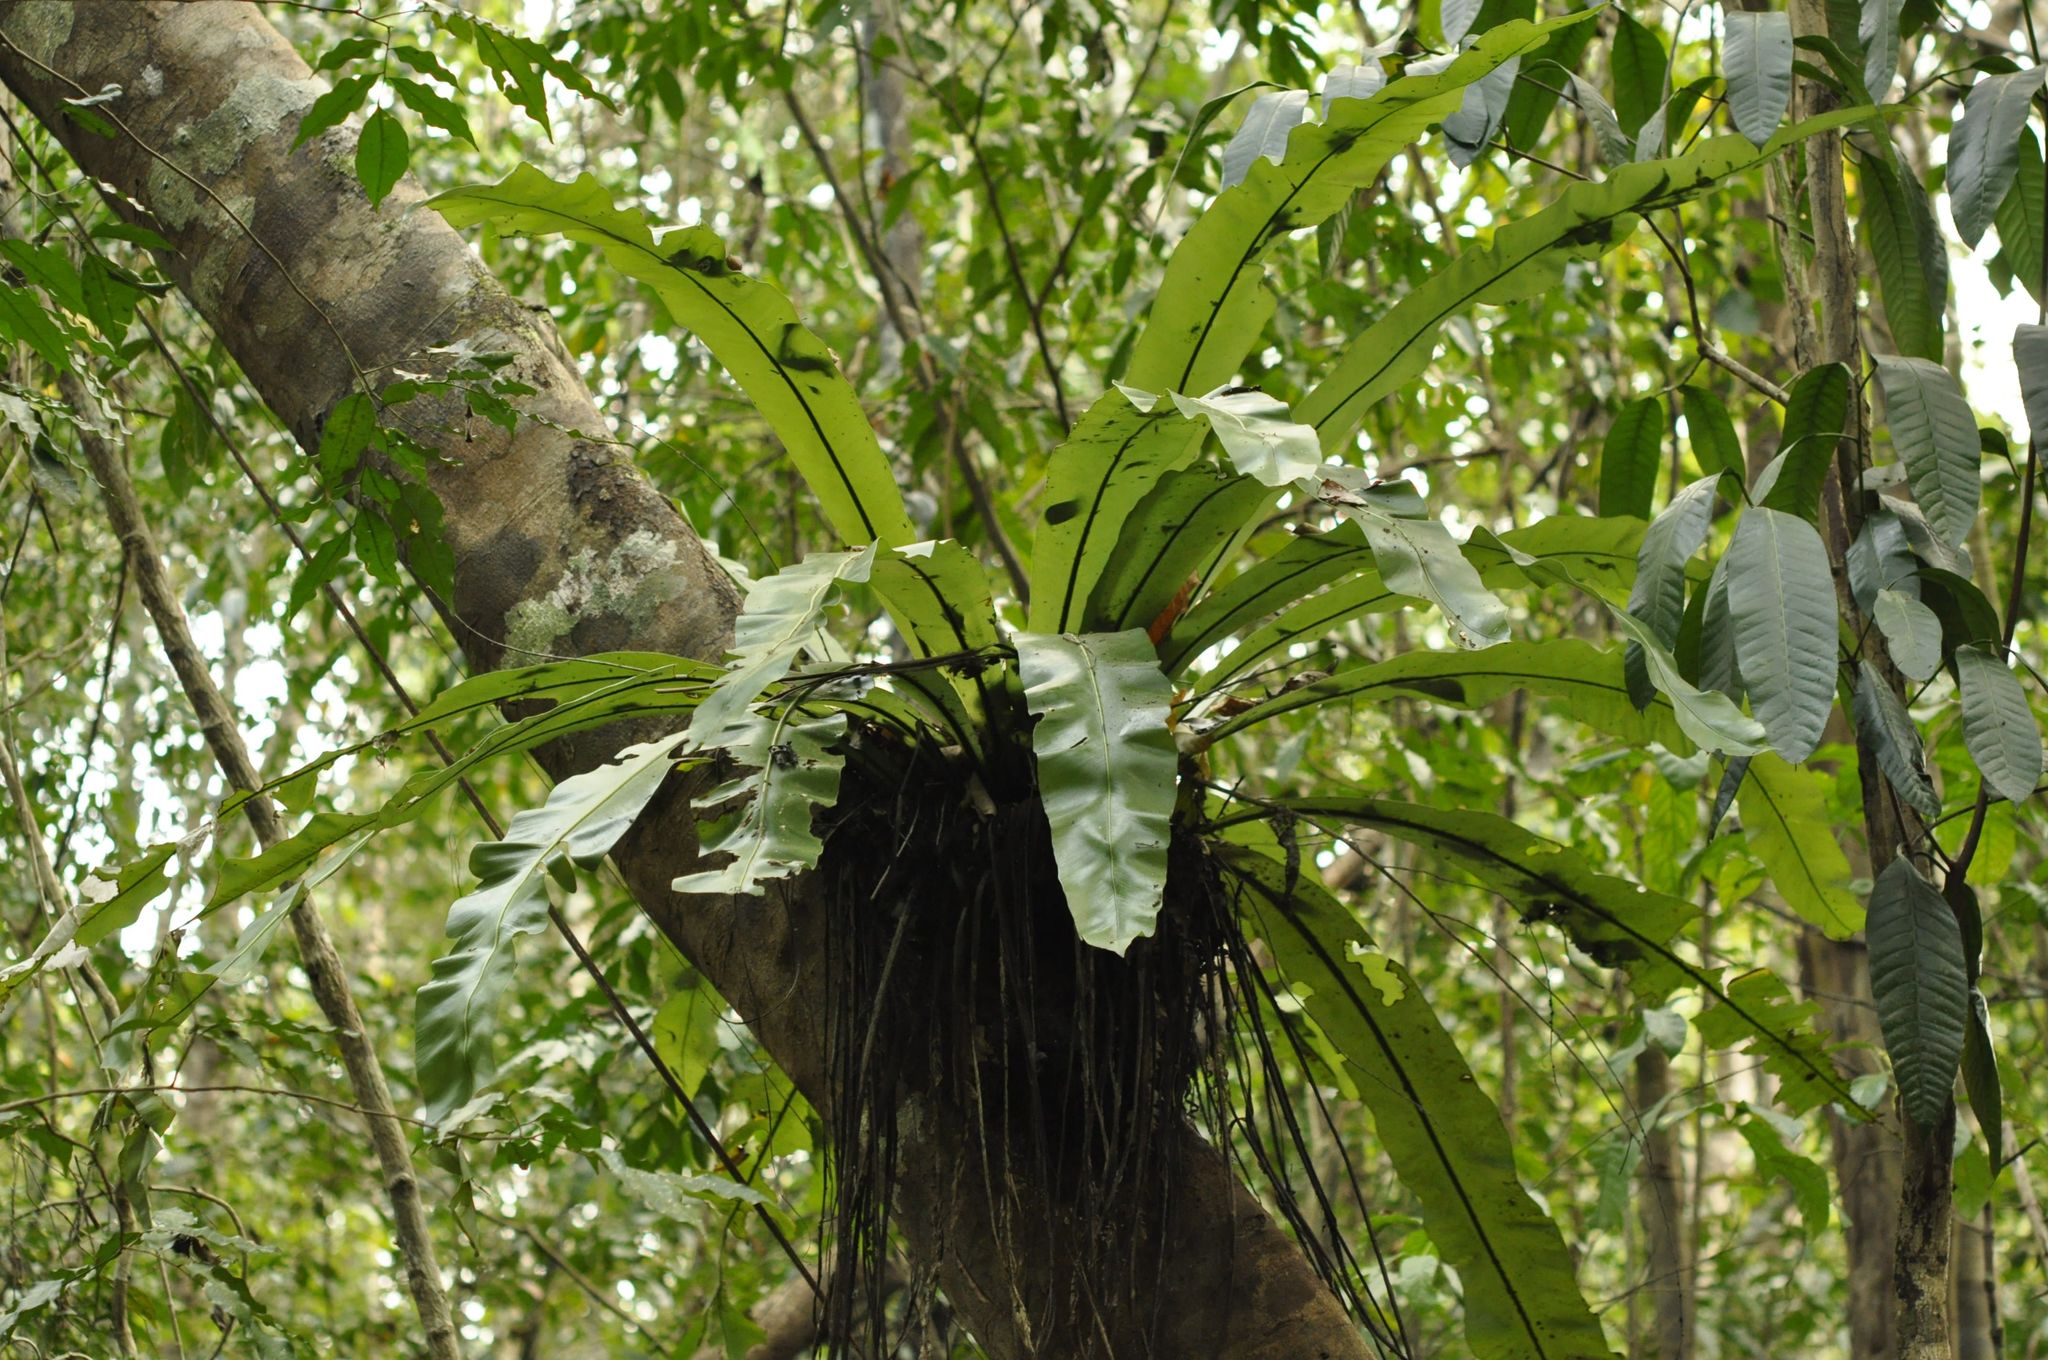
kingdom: Plantae
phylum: Tracheophyta
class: Polypodiopsida
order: Polypodiales
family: Aspleniaceae
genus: Asplenium
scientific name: Asplenium nidus
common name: Bird's-nest fern
